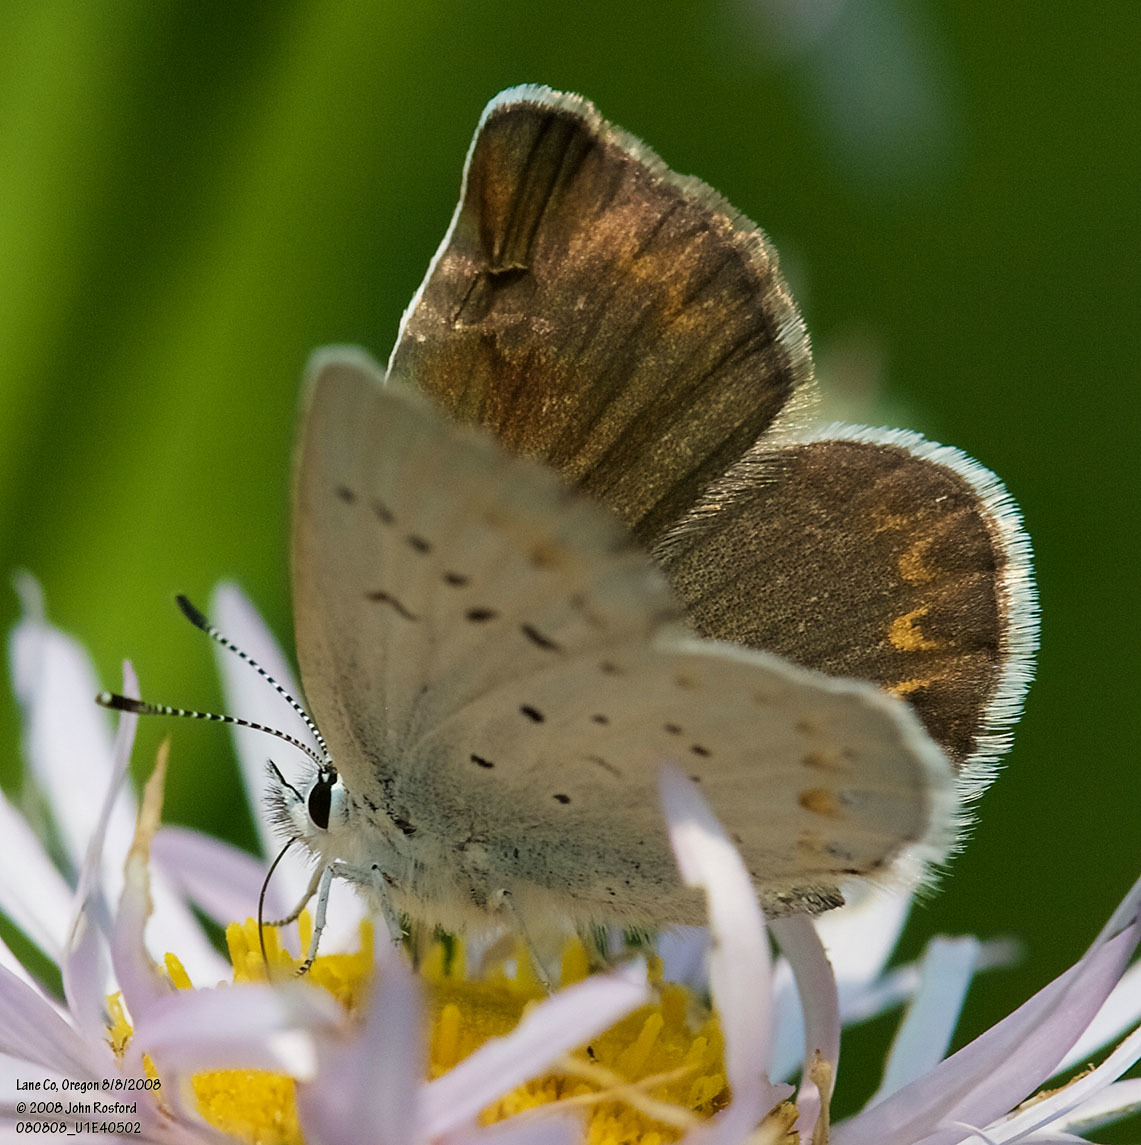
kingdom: Animalia
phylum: Arthropoda
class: Insecta
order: Lepidoptera
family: Lycaenidae
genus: Lycaeides
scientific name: Lycaeides anna
